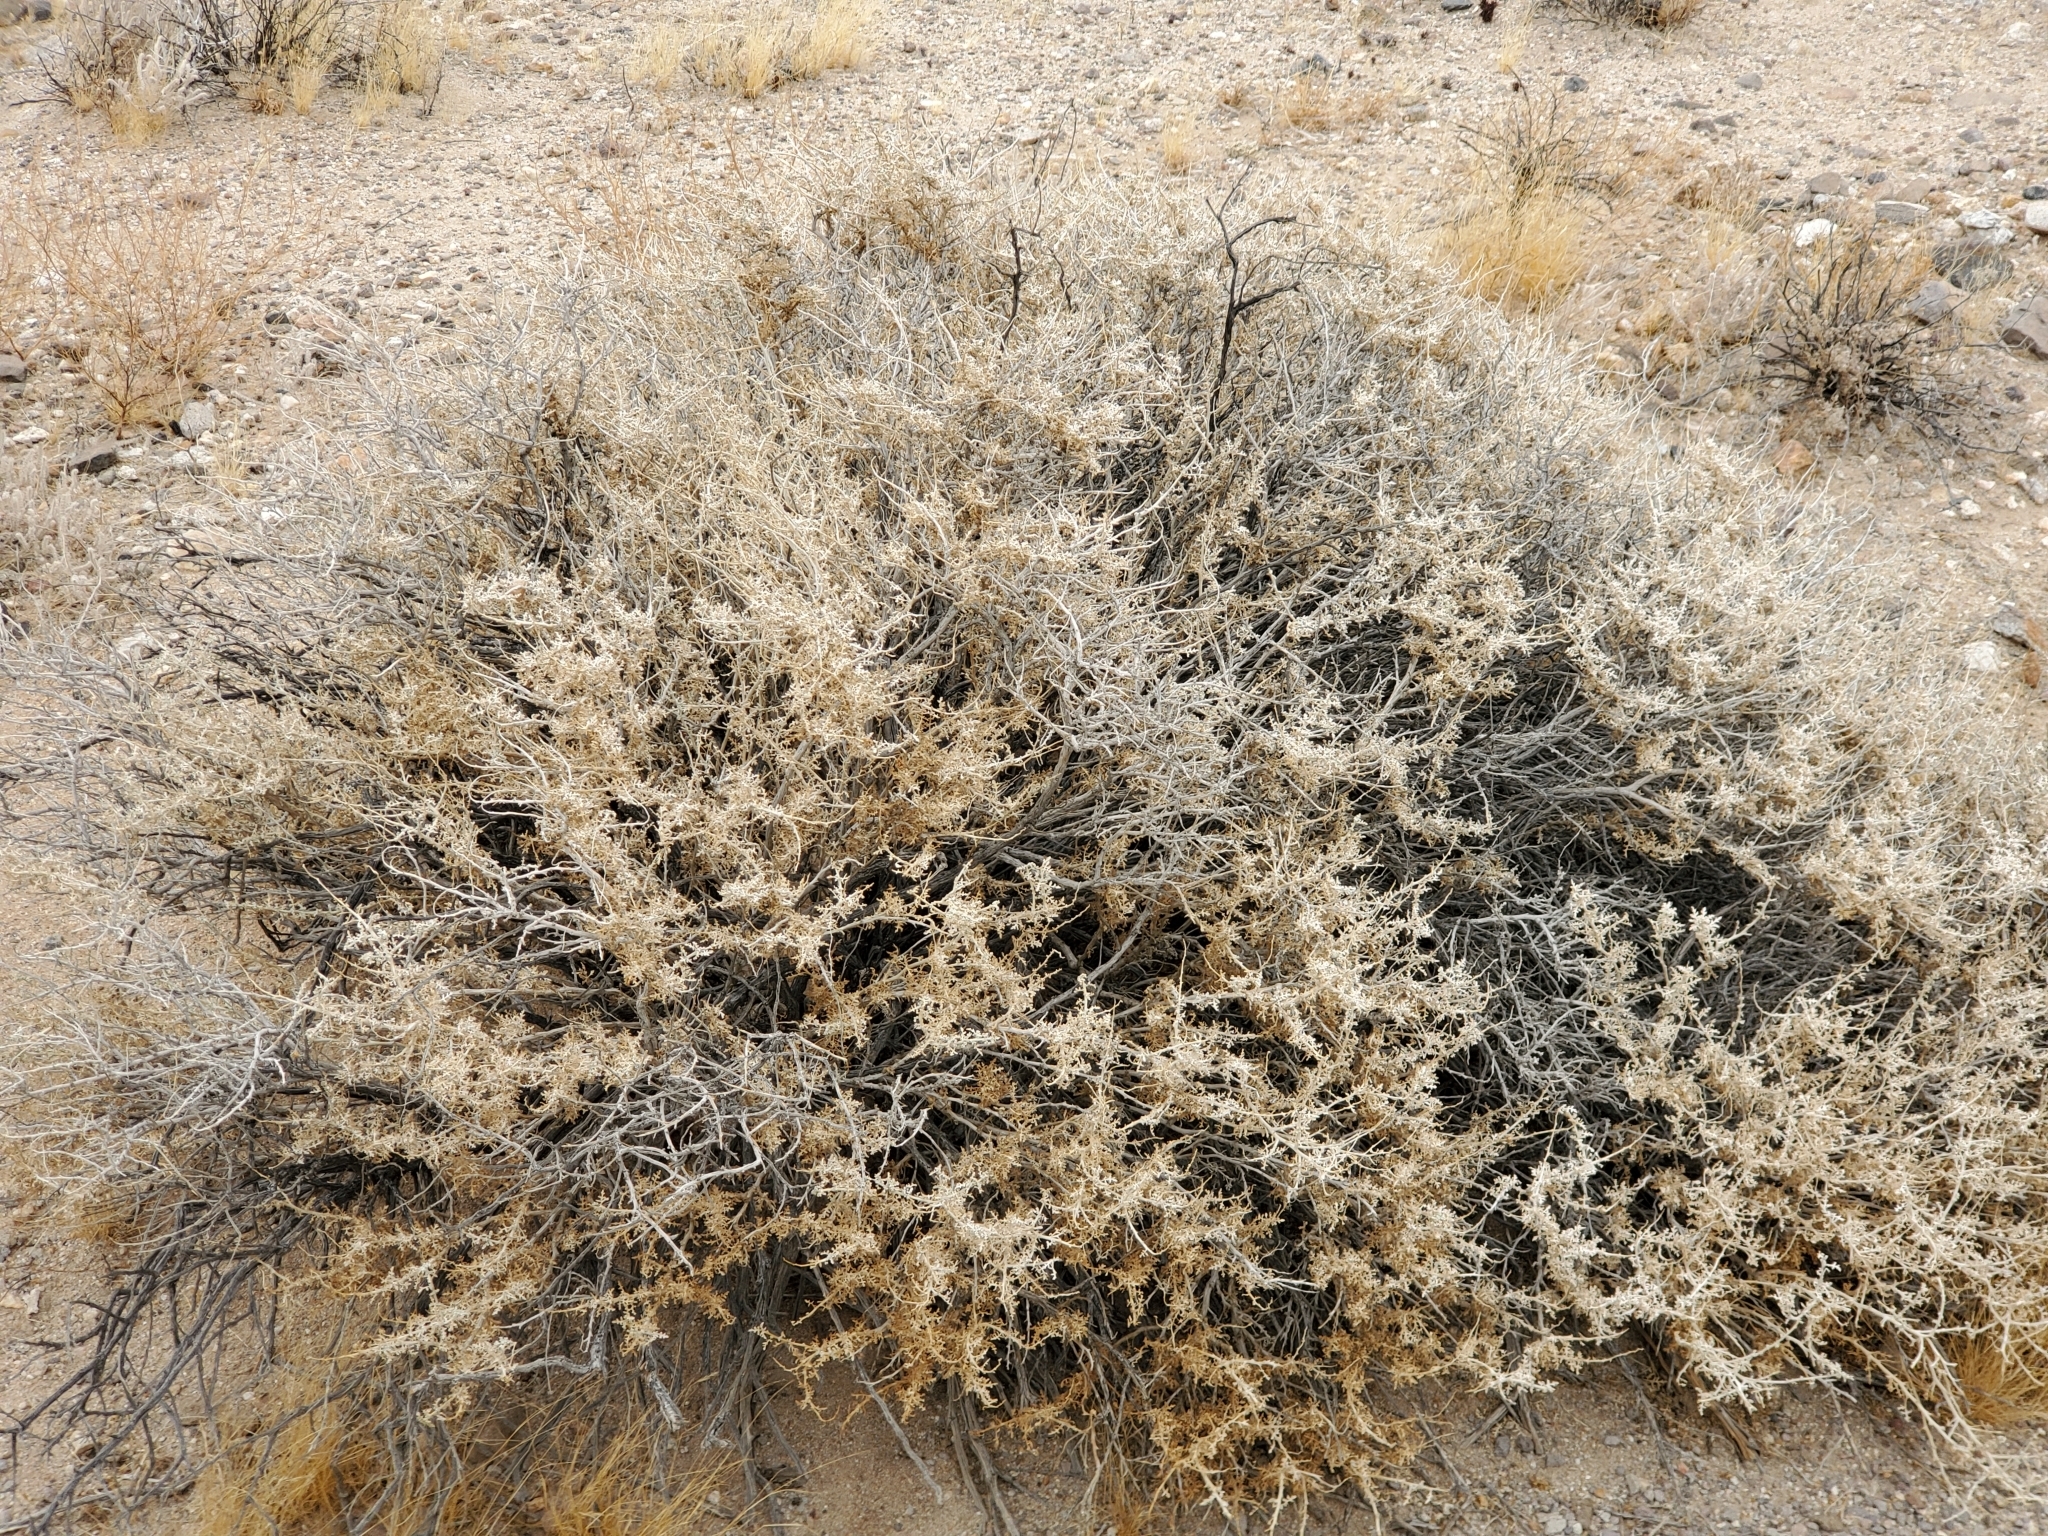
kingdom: Plantae
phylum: Tracheophyta
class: Magnoliopsida
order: Asterales
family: Asteraceae
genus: Ambrosia
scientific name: Ambrosia dumosa
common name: Bur-sage
